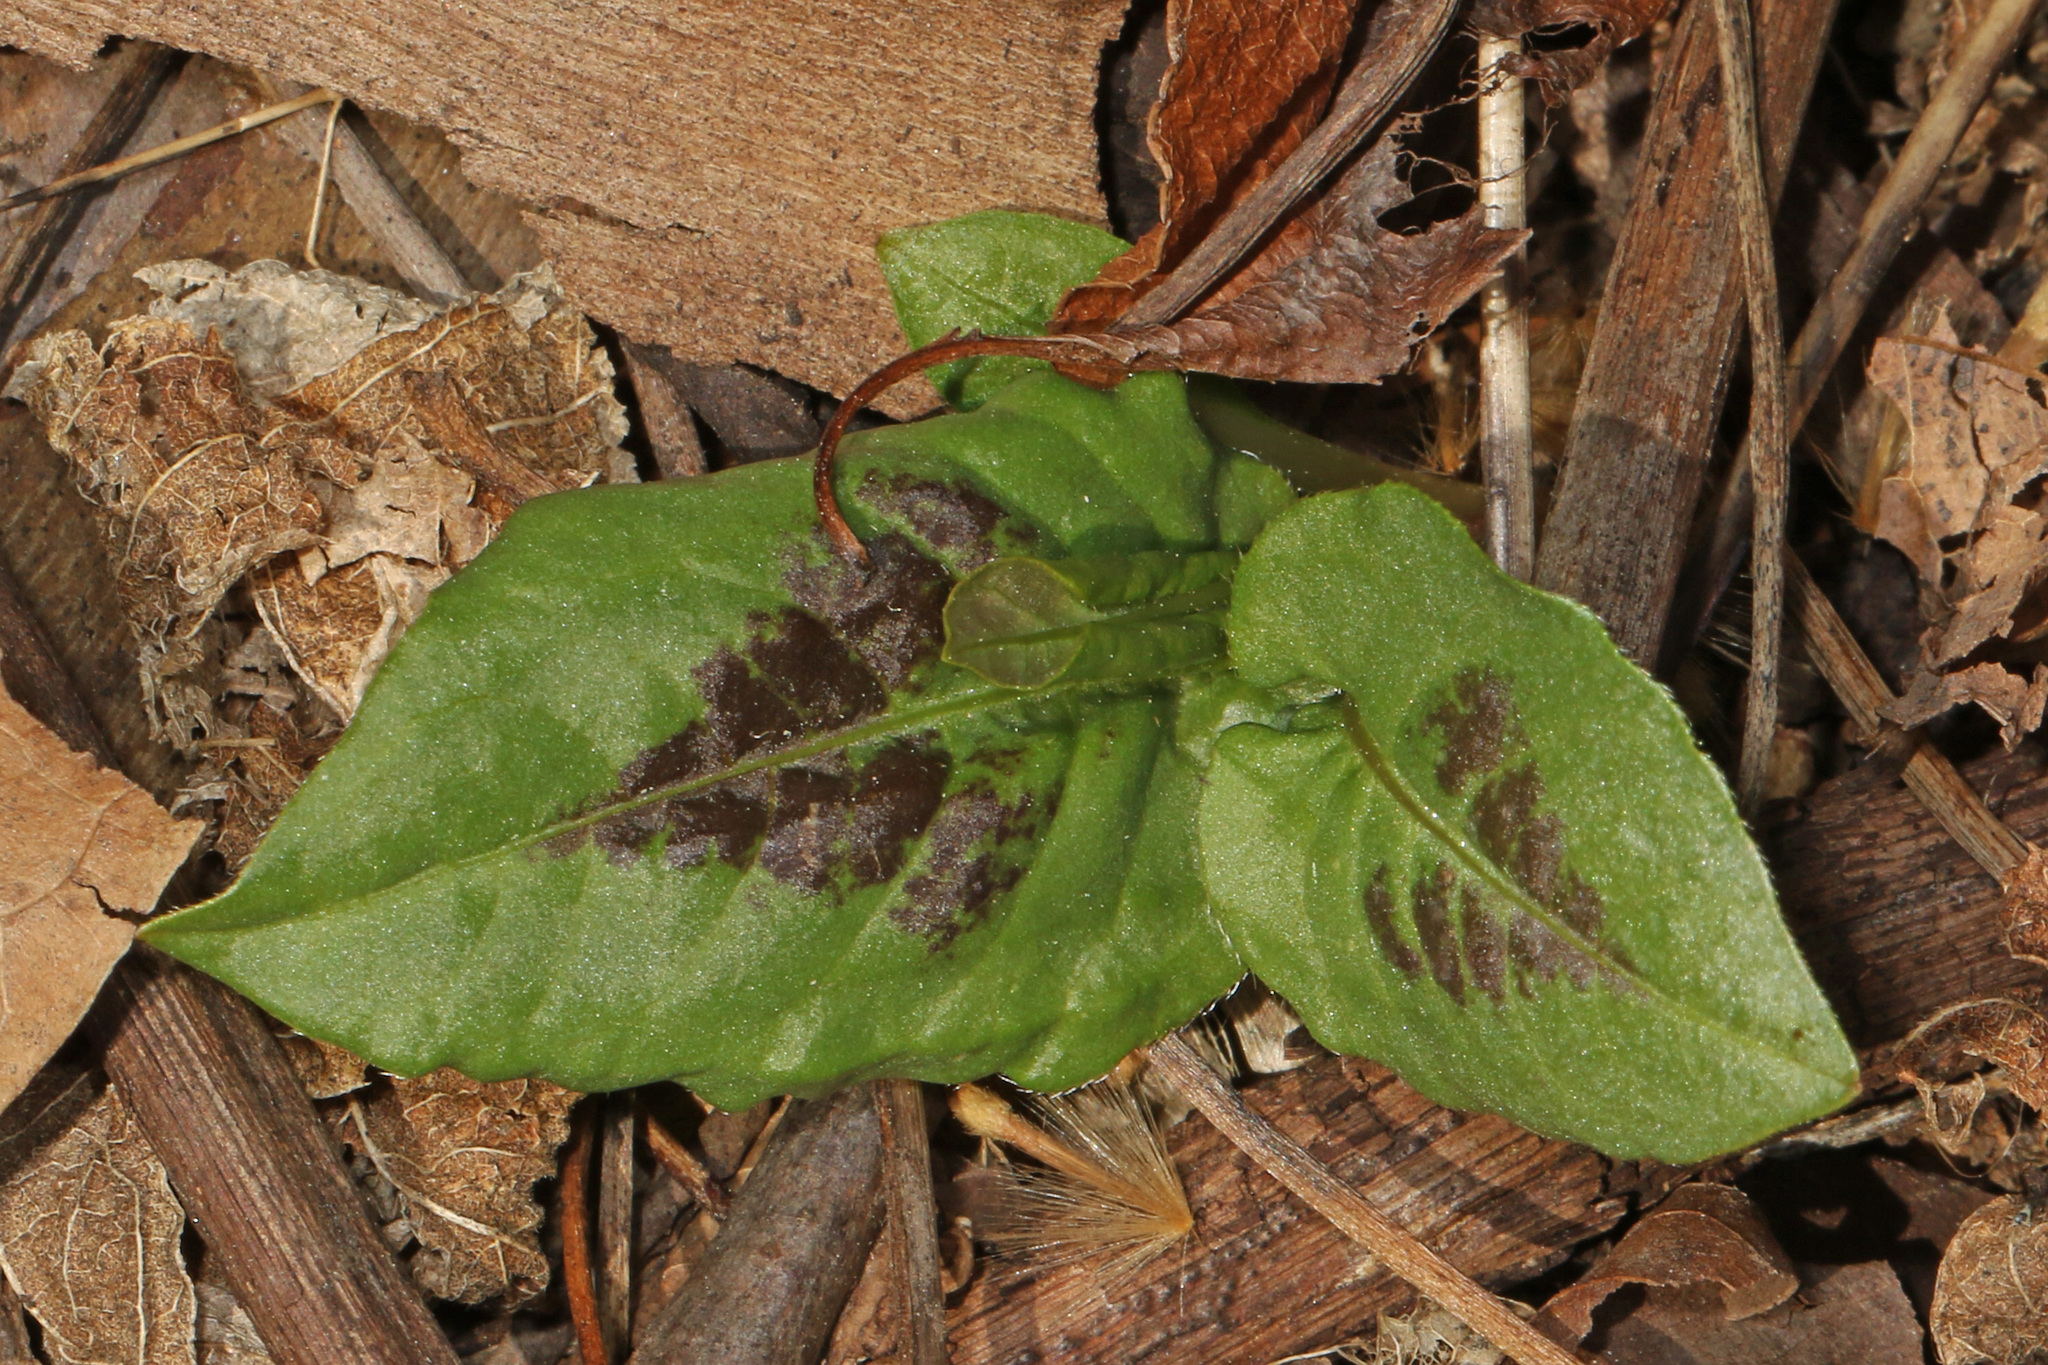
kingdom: Plantae
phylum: Tracheophyta
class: Magnoliopsida
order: Caryophyllales
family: Polygonaceae
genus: Persicaria
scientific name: Persicaria virginiana
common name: Jumpseed
